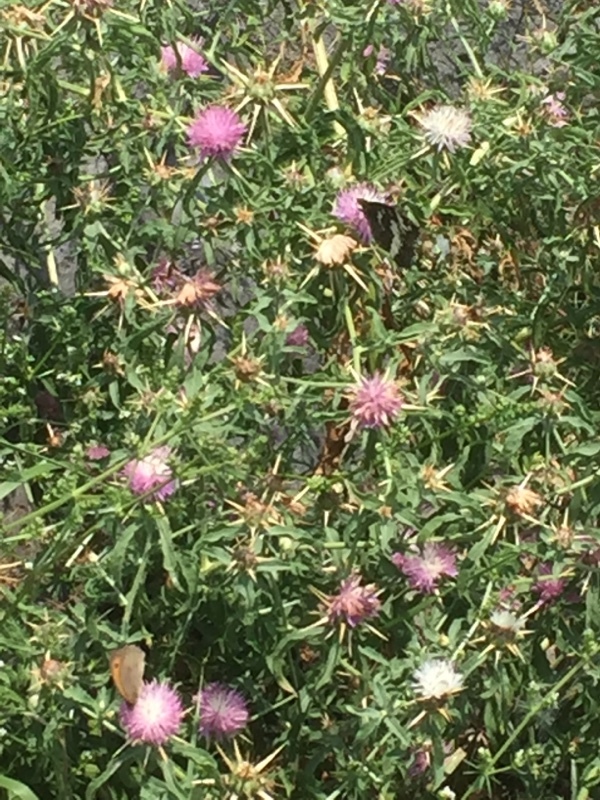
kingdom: Animalia
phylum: Arthropoda
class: Insecta
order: Lepidoptera
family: Lycaenidae
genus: Loweia
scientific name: Loweia tityrus
